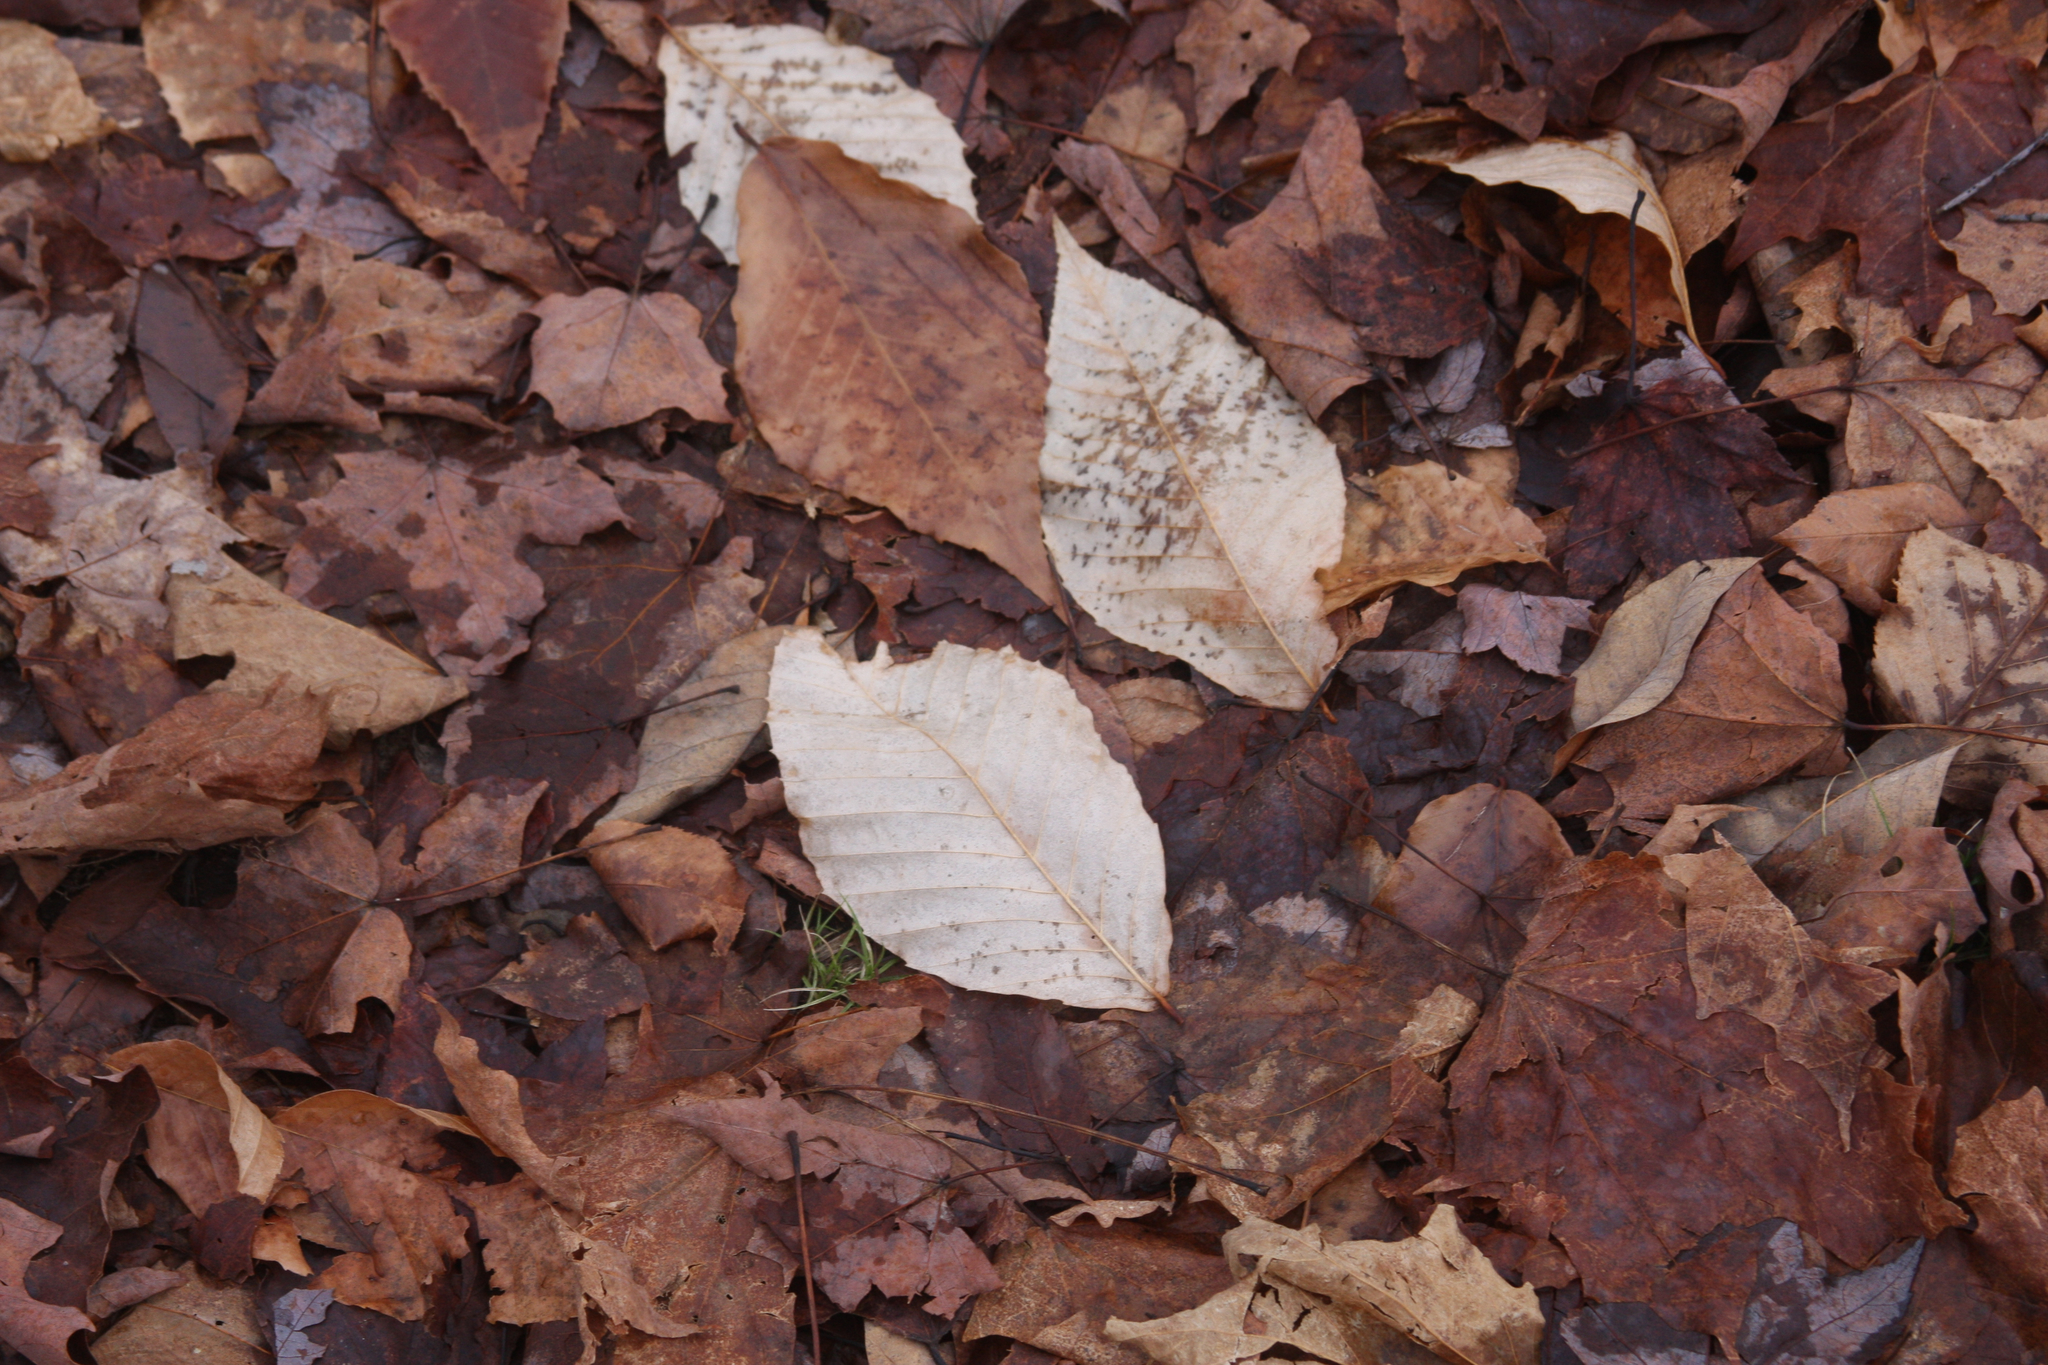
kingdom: Plantae
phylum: Tracheophyta
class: Magnoliopsida
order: Fagales
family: Fagaceae
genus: Fagus
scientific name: Fagus grandifolia
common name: American beech
